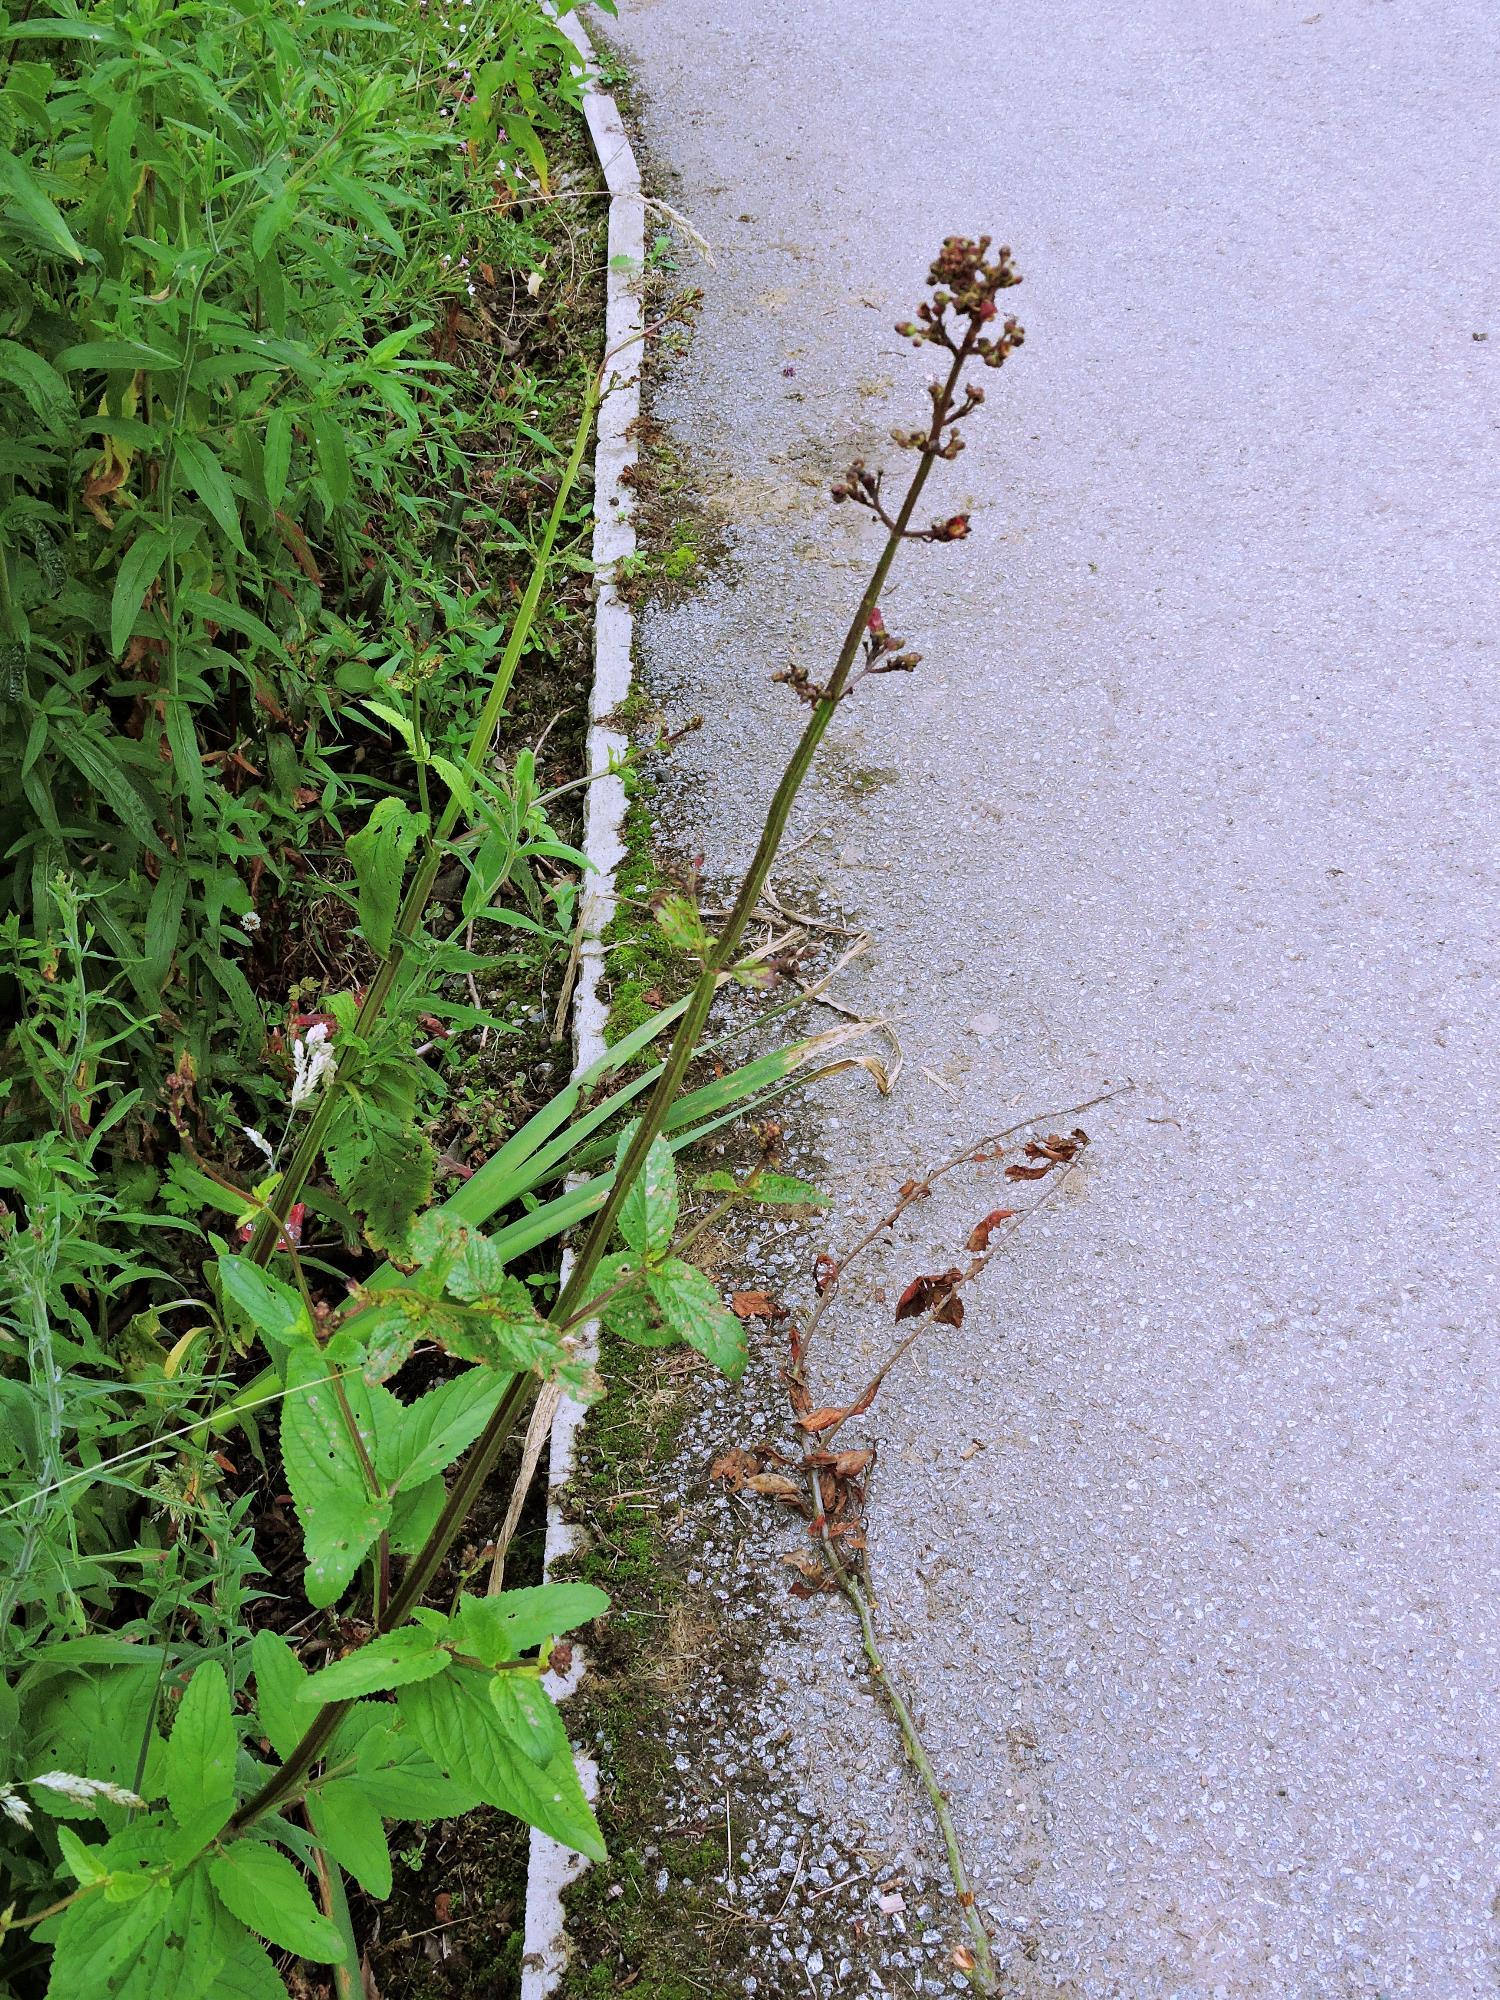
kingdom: Plantae
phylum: Tracheophyta
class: Magnoliopsida
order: Lamiales
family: Scrophulariaceae
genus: Scrophularia
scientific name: Scrophularia auriculata
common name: Water betony
